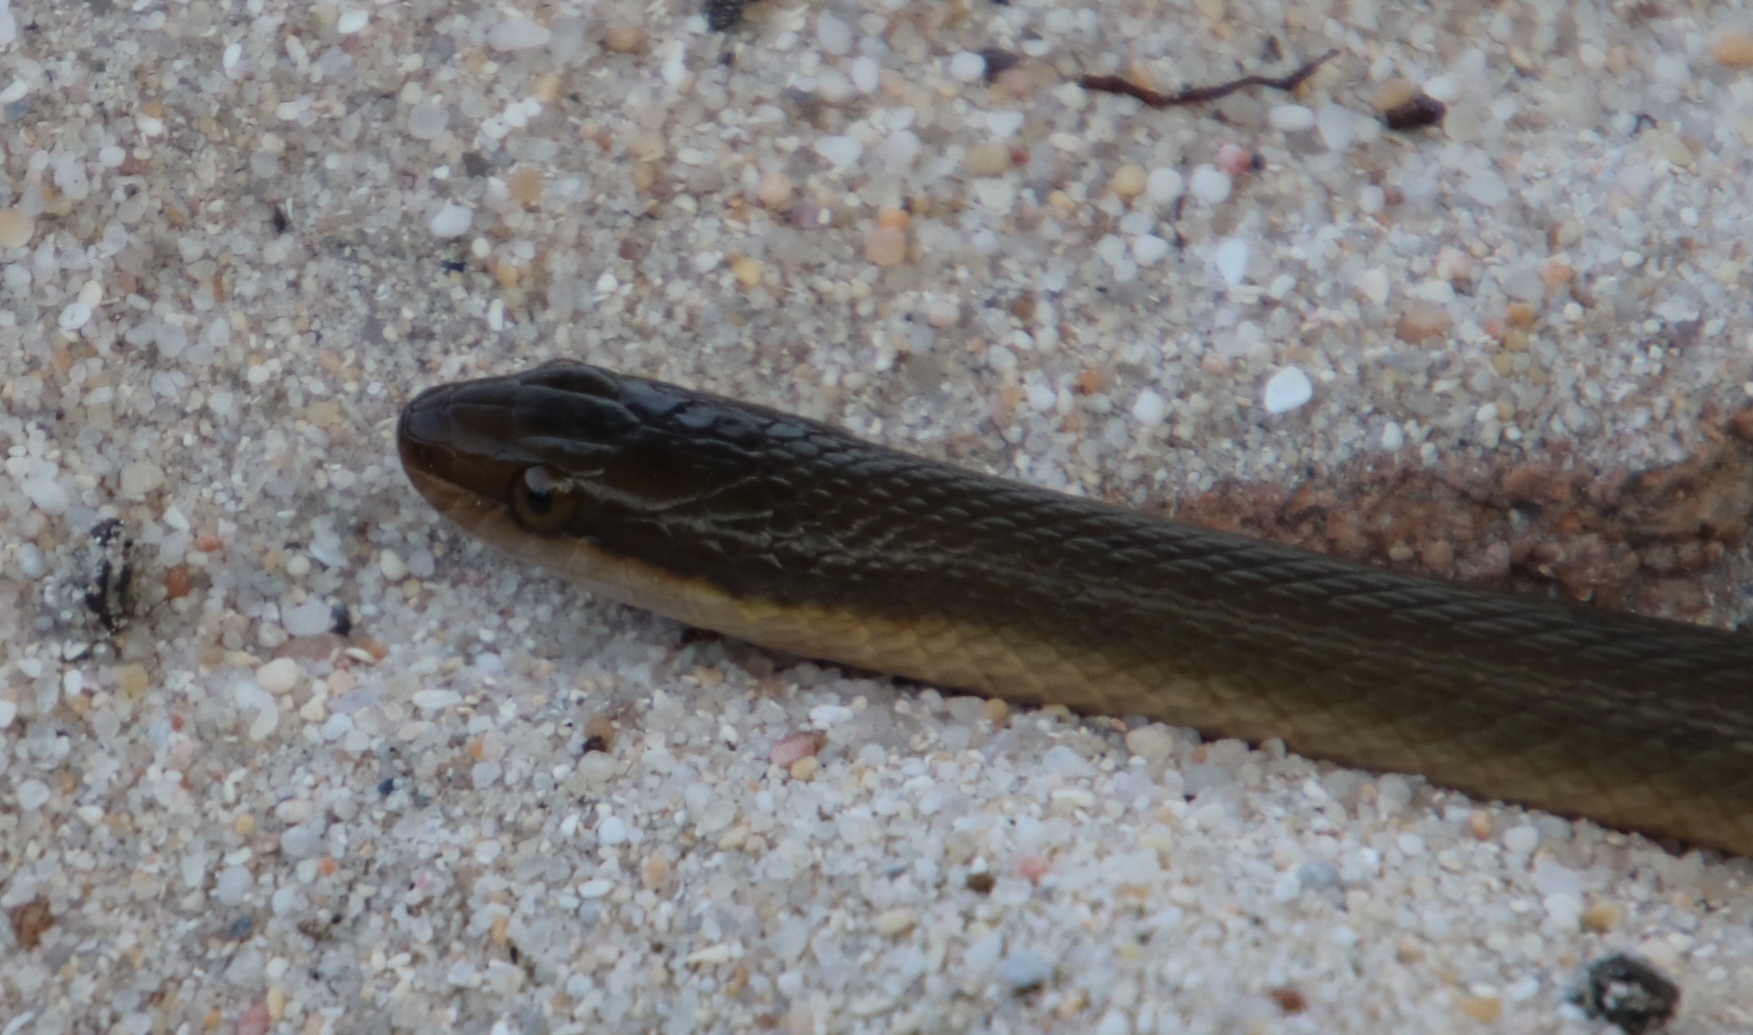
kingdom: Animalia
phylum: Chordata
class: Squamata
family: Lamprophiidae
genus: Lycodonomorphus
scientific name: Lycodonomorphus rufulus
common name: Brown water snake
